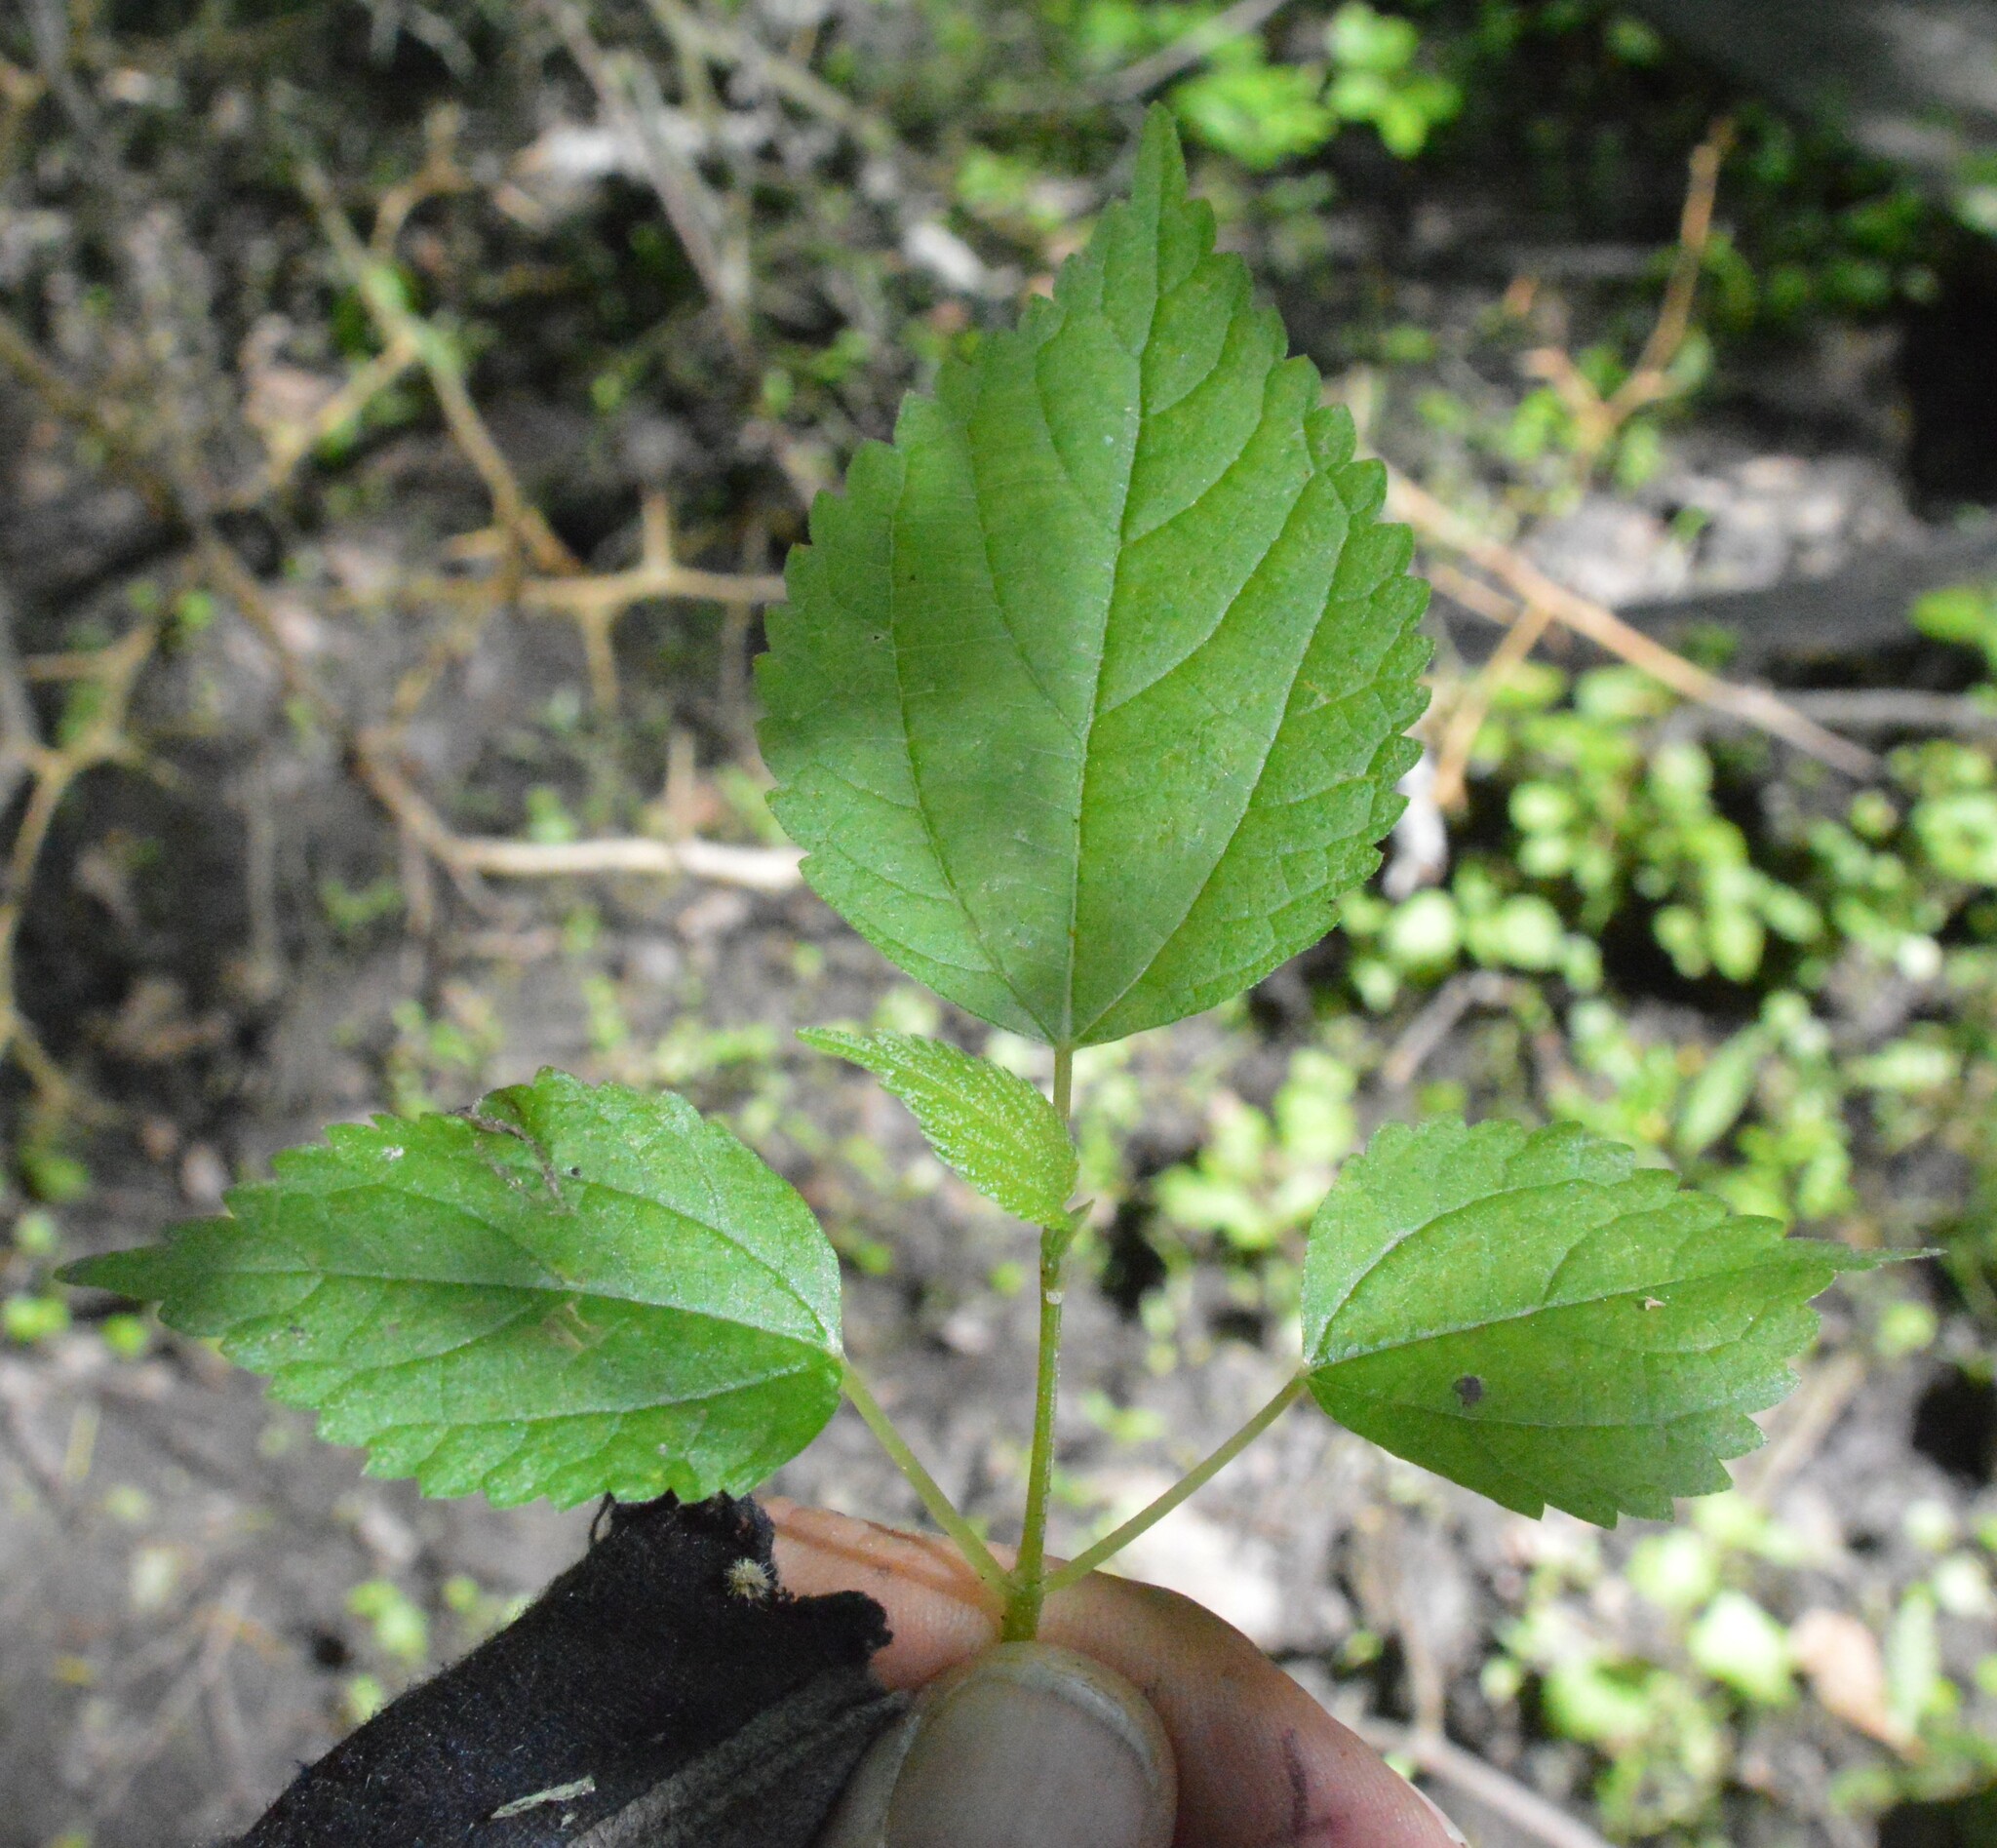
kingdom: Plantae
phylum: Tracheophyta
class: Magnoliopsida
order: Rosales
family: Urticaceae
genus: Boehmeria
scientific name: Boehmeria cylindrica
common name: Bog-hemp
